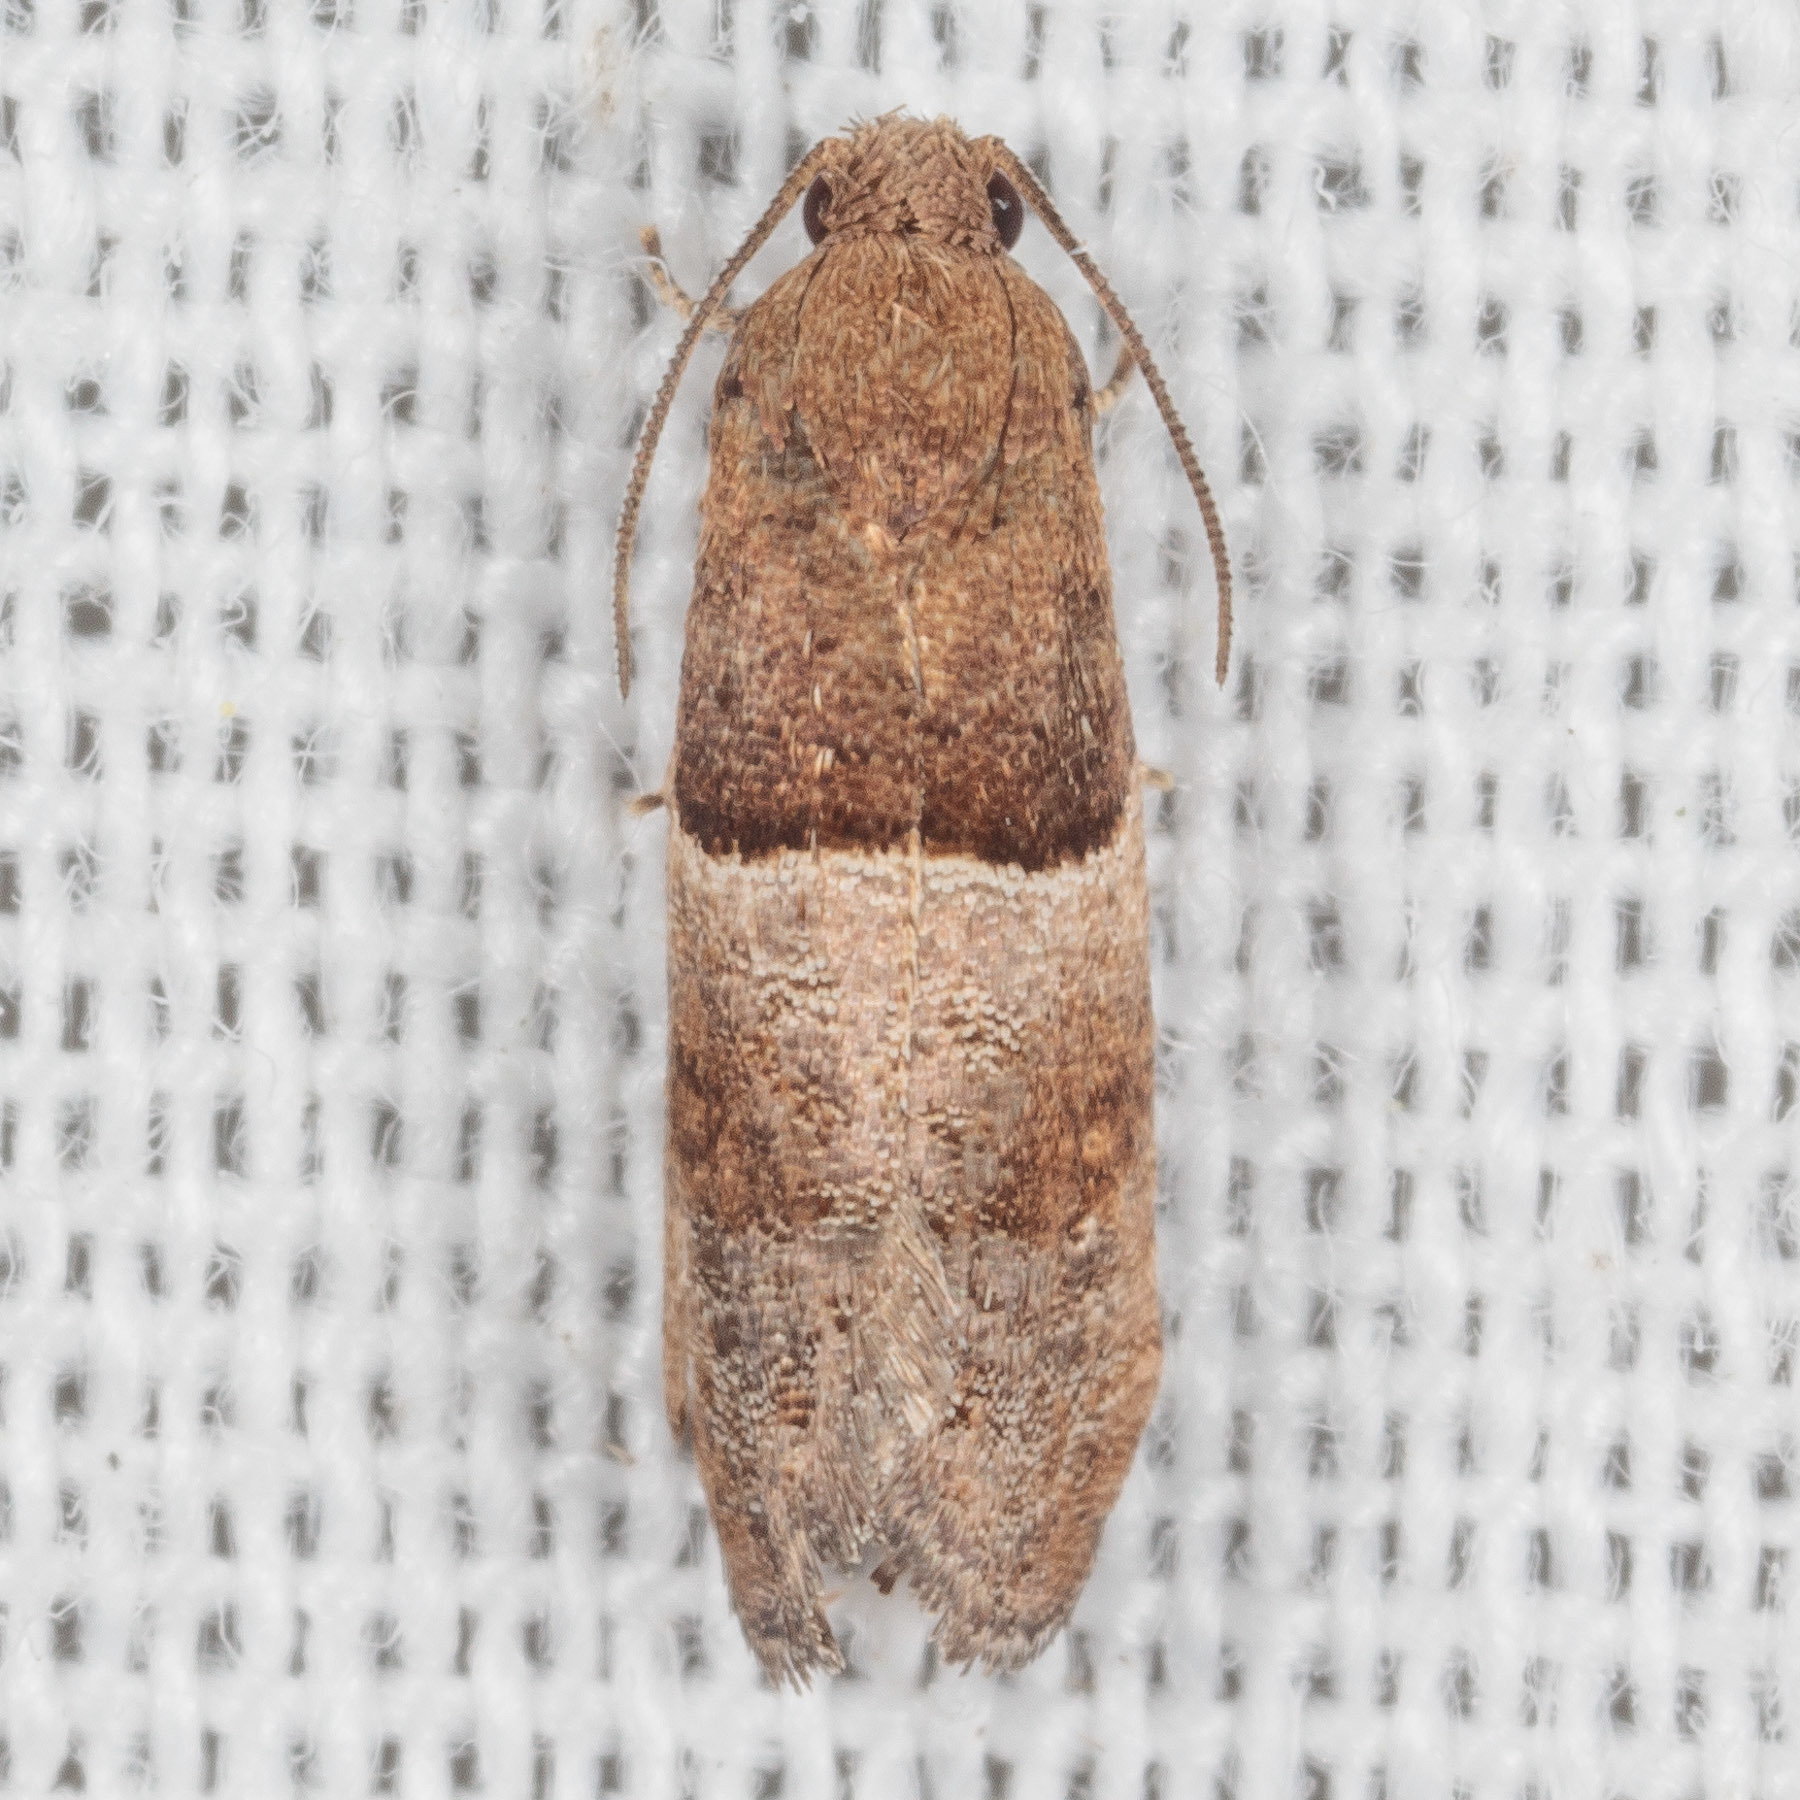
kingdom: Animalia
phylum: Arthropoda
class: Insecta
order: Lepidoptera
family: Tortricidae
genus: Larisa
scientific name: Larisa subsolana
